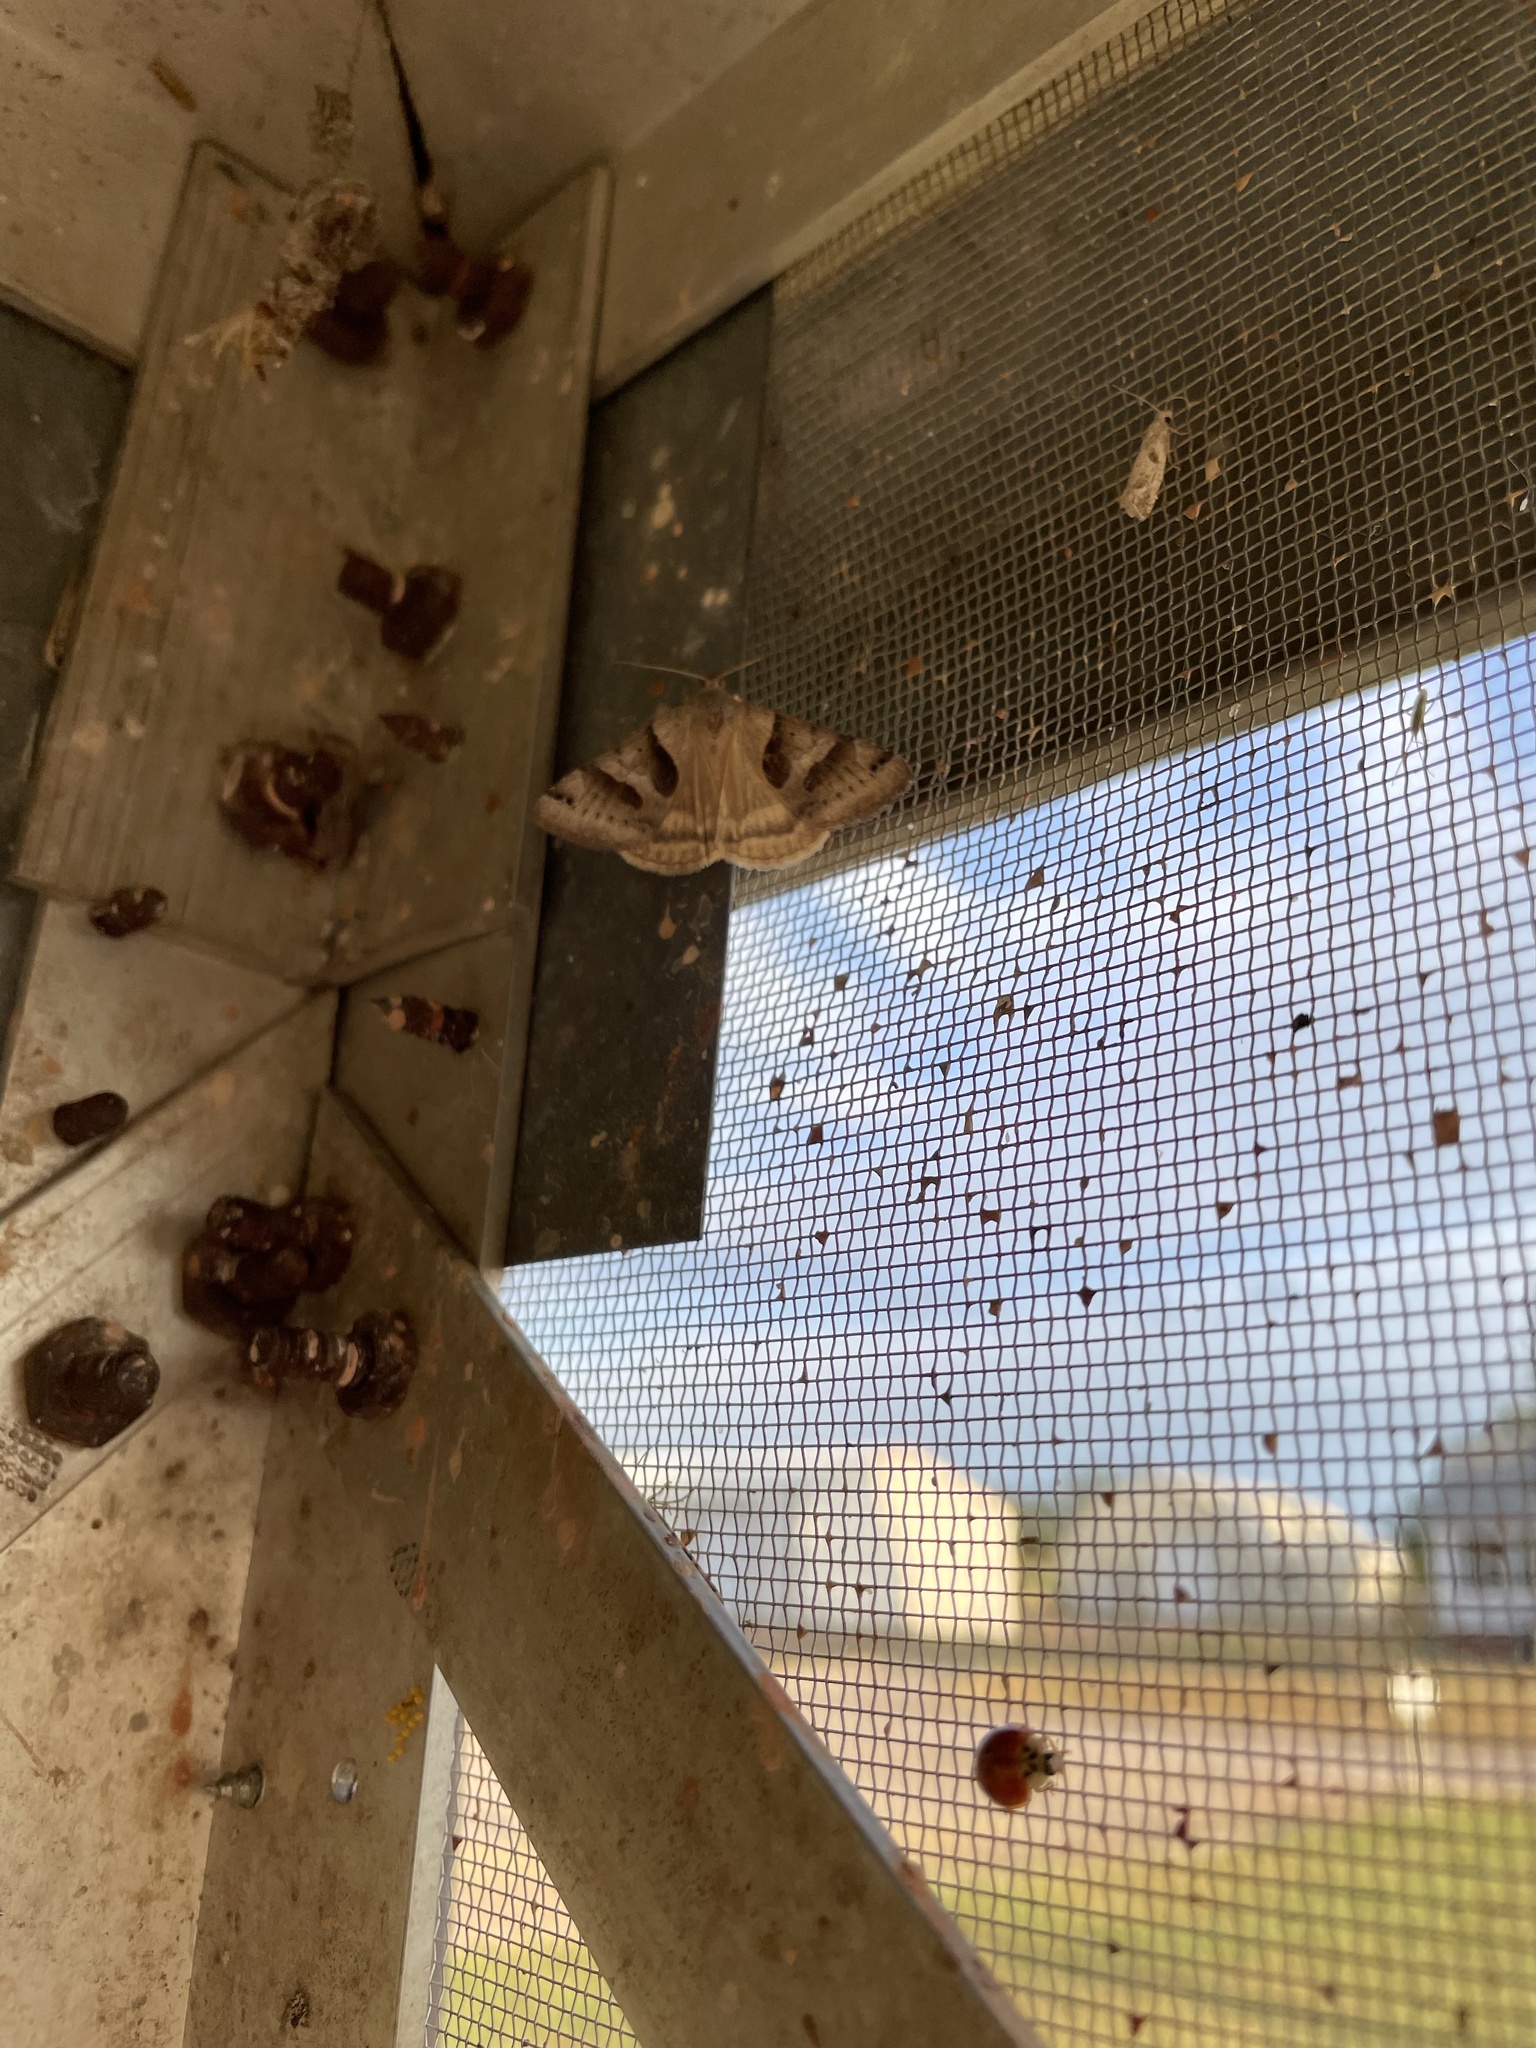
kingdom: Animalia
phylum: Arthropoda
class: Insecta
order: Lepidoptera
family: Erebidae
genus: Caenurgina
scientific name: Caenurgina erechtea
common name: Forage looper moth
